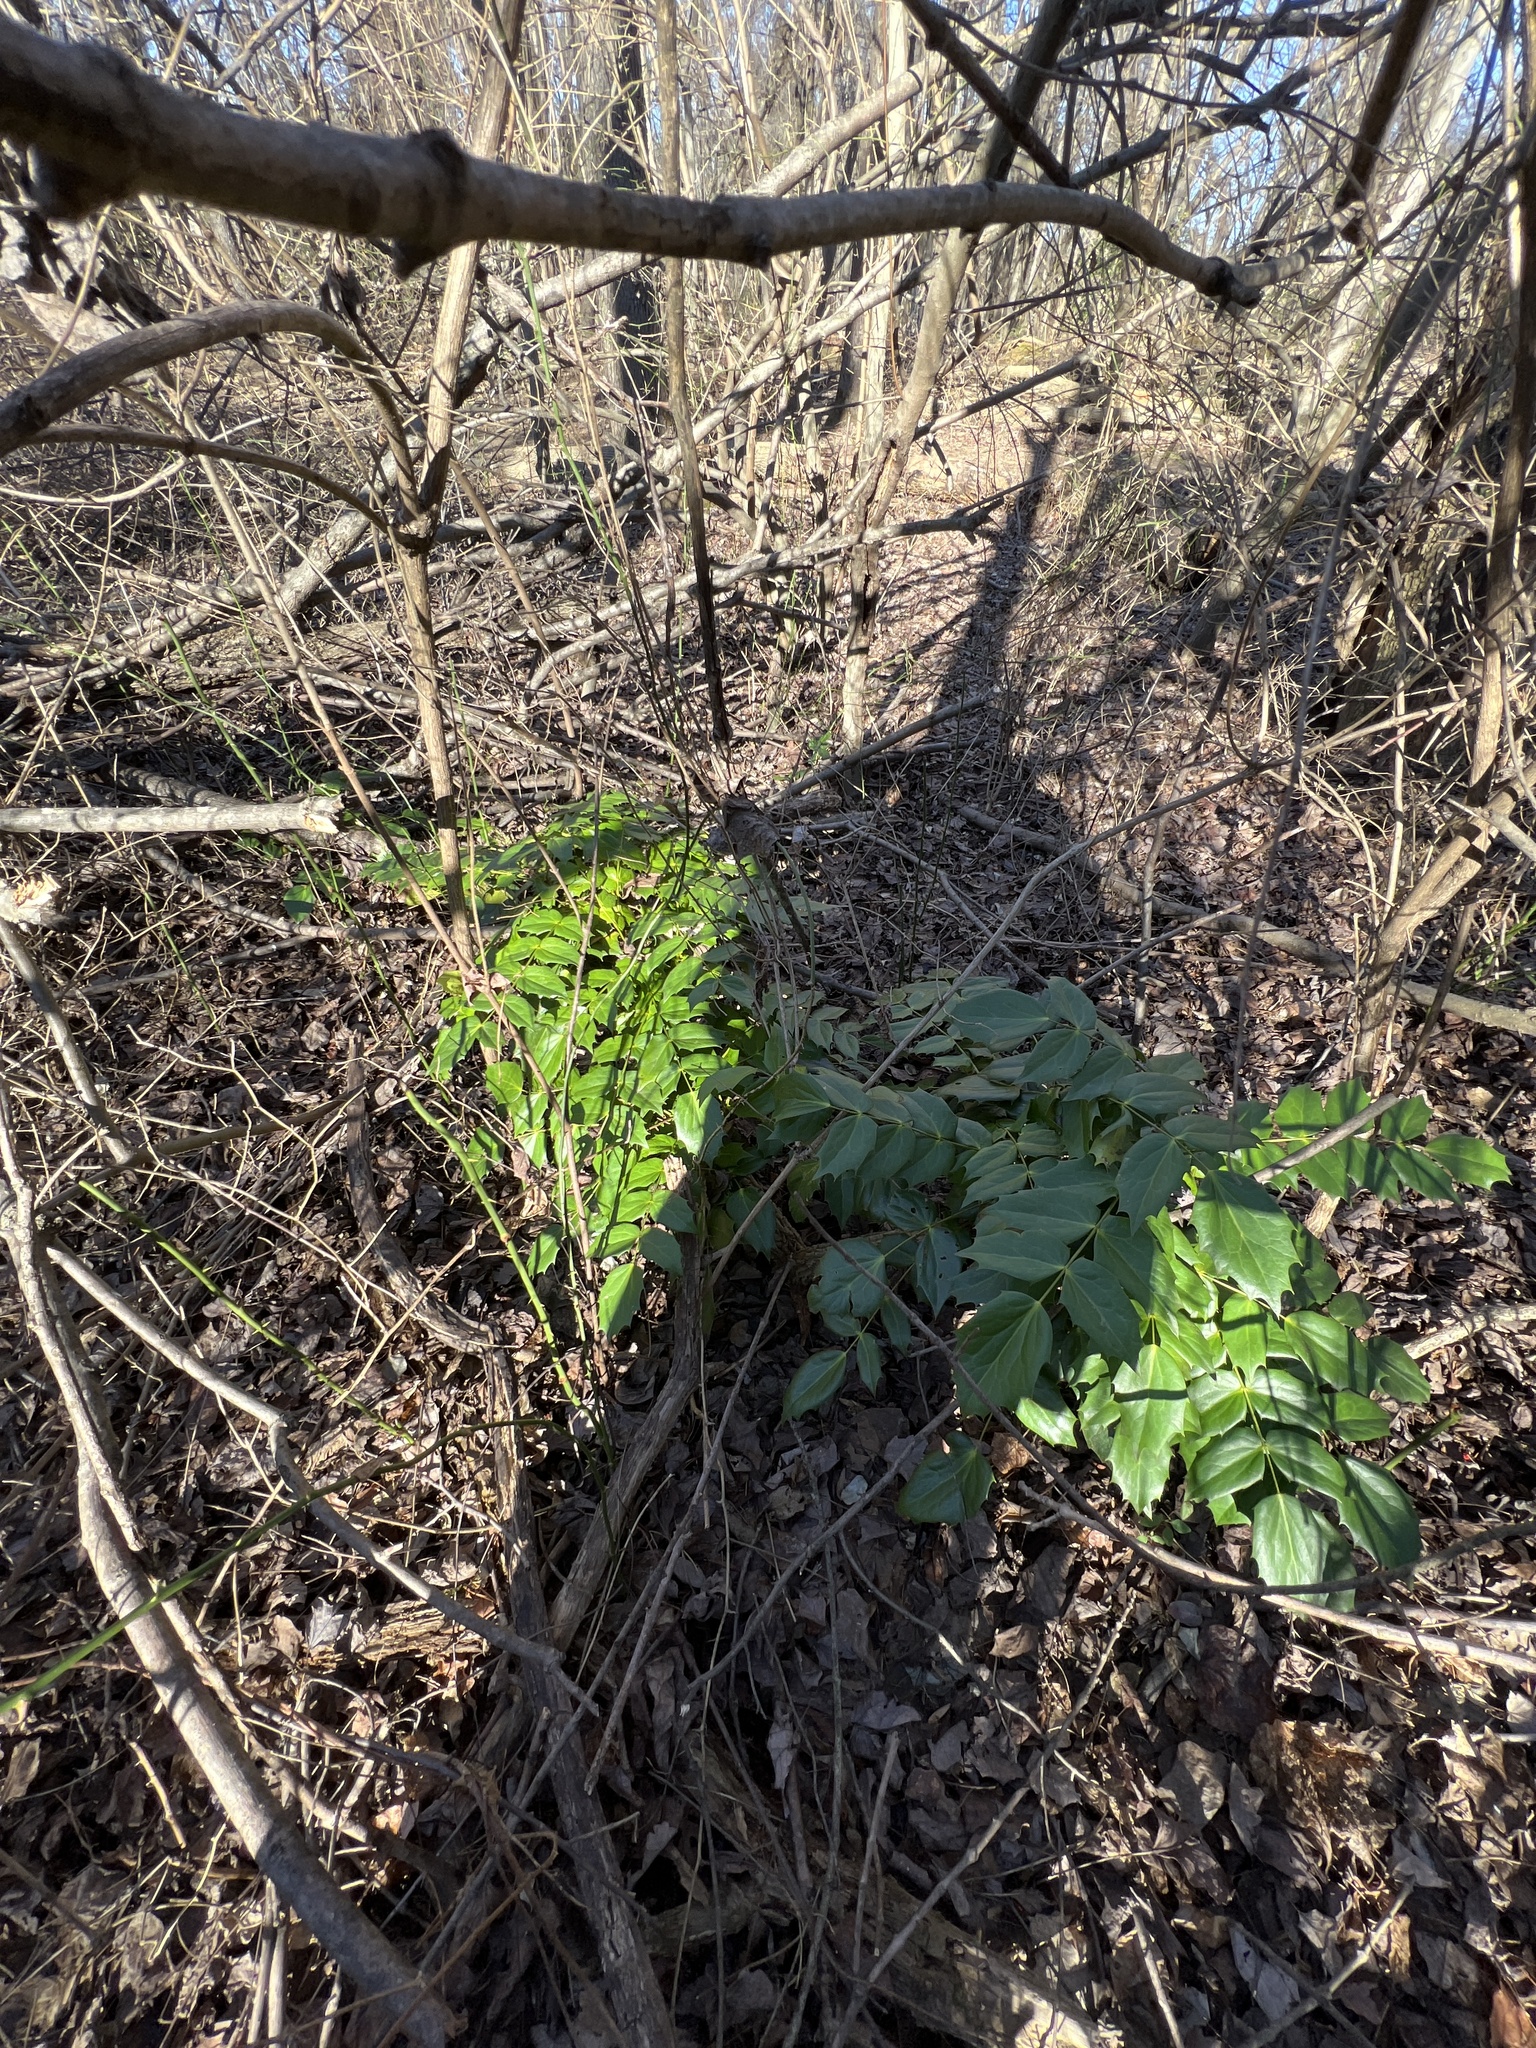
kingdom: Plantae
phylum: Tracheophyta
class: Magnoliopsida
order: Ranunculales
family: Berberidaceae
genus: Mahonia
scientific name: Mahonia bealei
